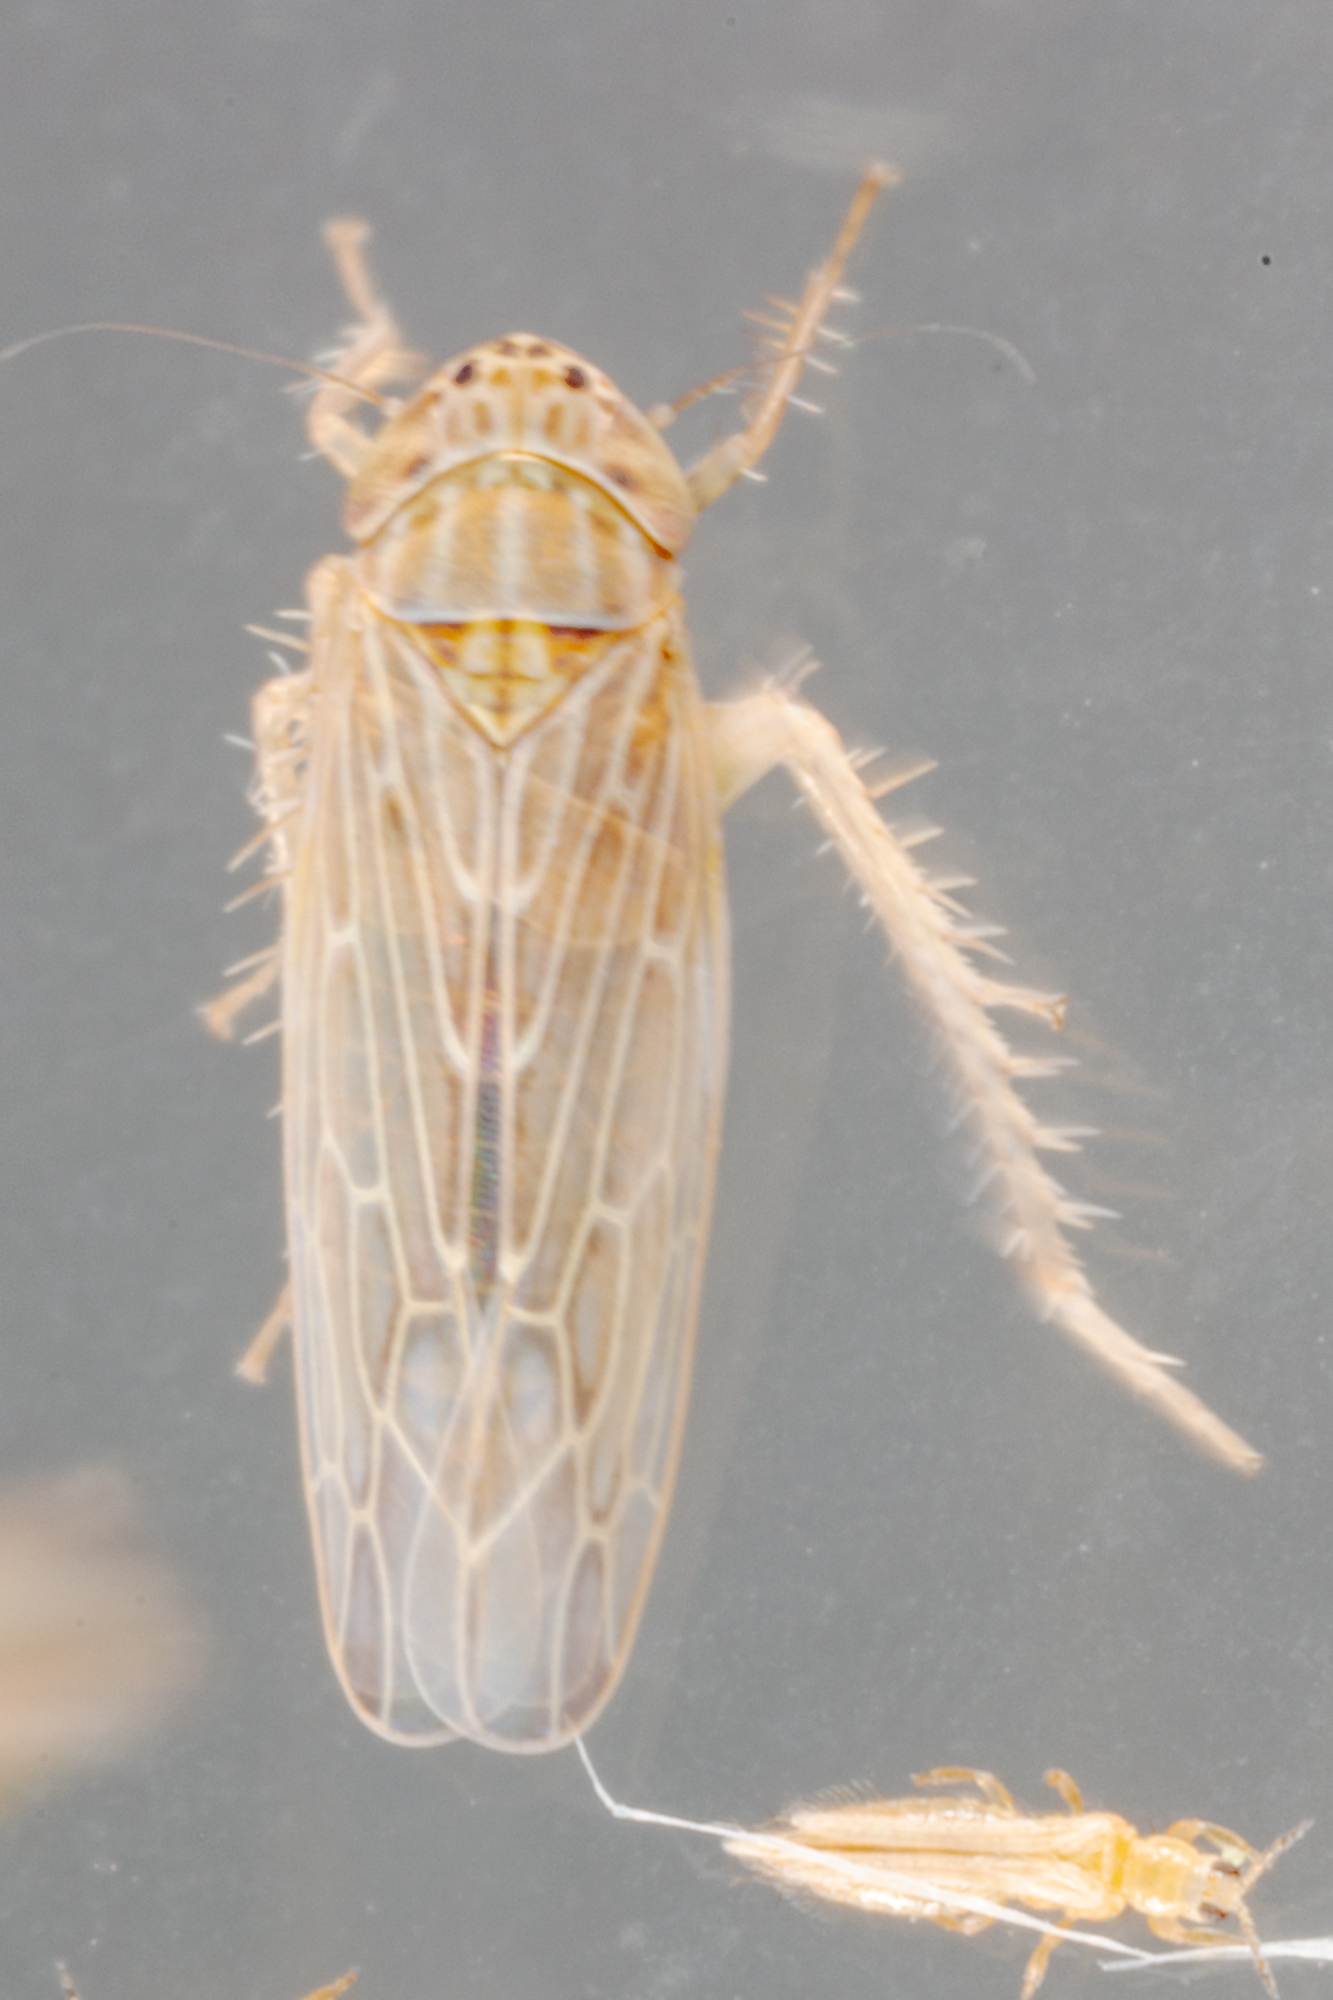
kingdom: Animalia
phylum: Arthropoda
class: Insecta
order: Hemiptera
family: Cicadellidae
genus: Graminella
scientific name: Graminella sonora
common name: Lesser lawn leafhopper
